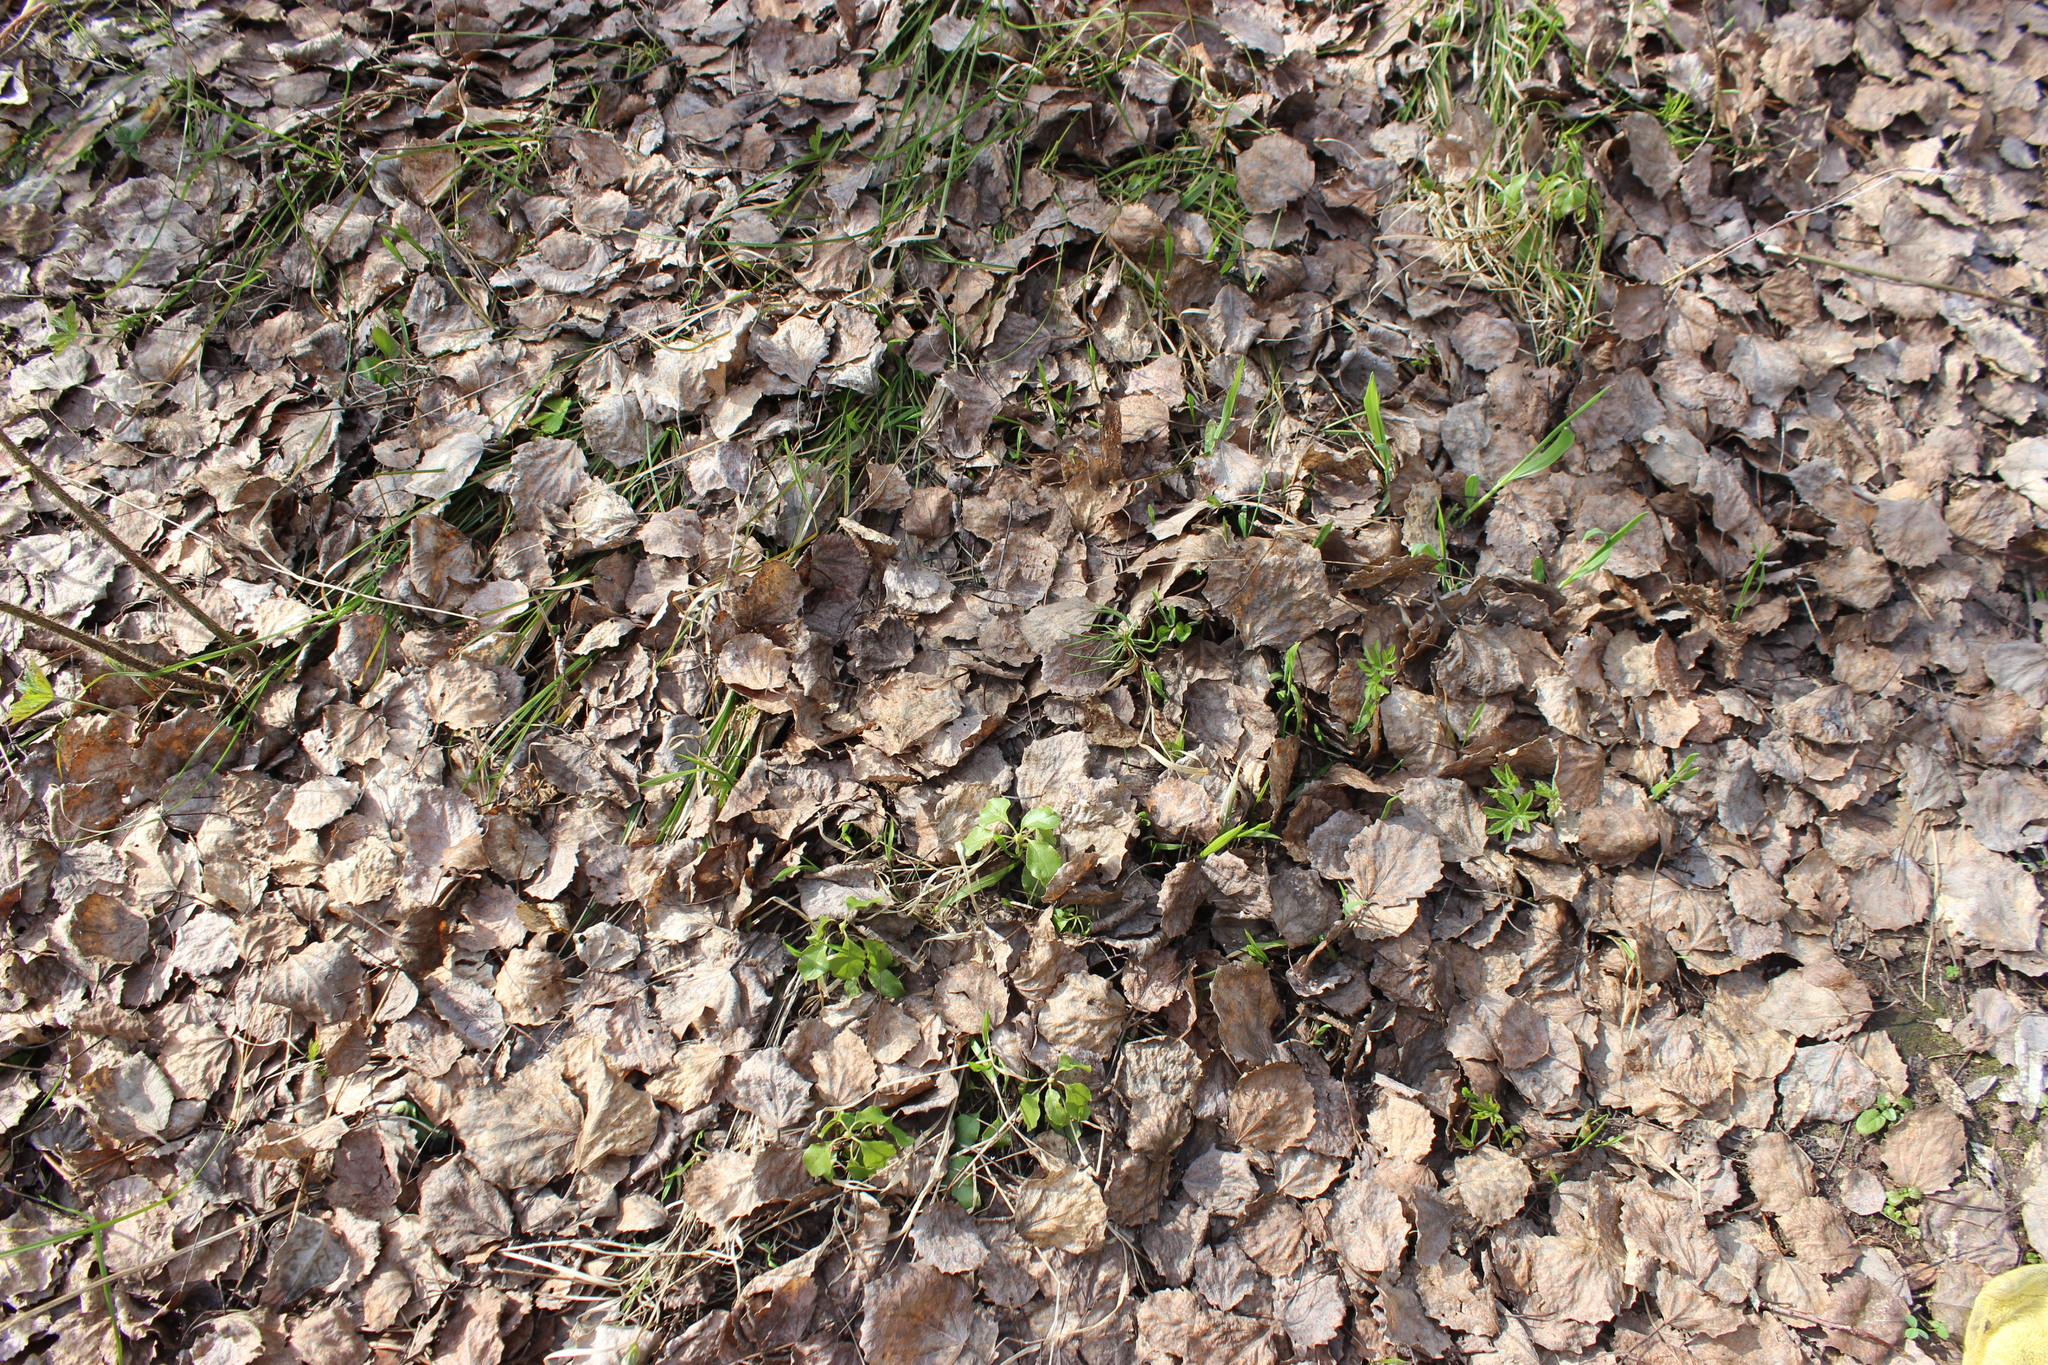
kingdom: Plantae
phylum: Tracheophyta
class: Magnoliopsida
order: Ericales
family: Ericaceae
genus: Orthilia
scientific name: Orthilia secunda
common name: One-sided orthilia
